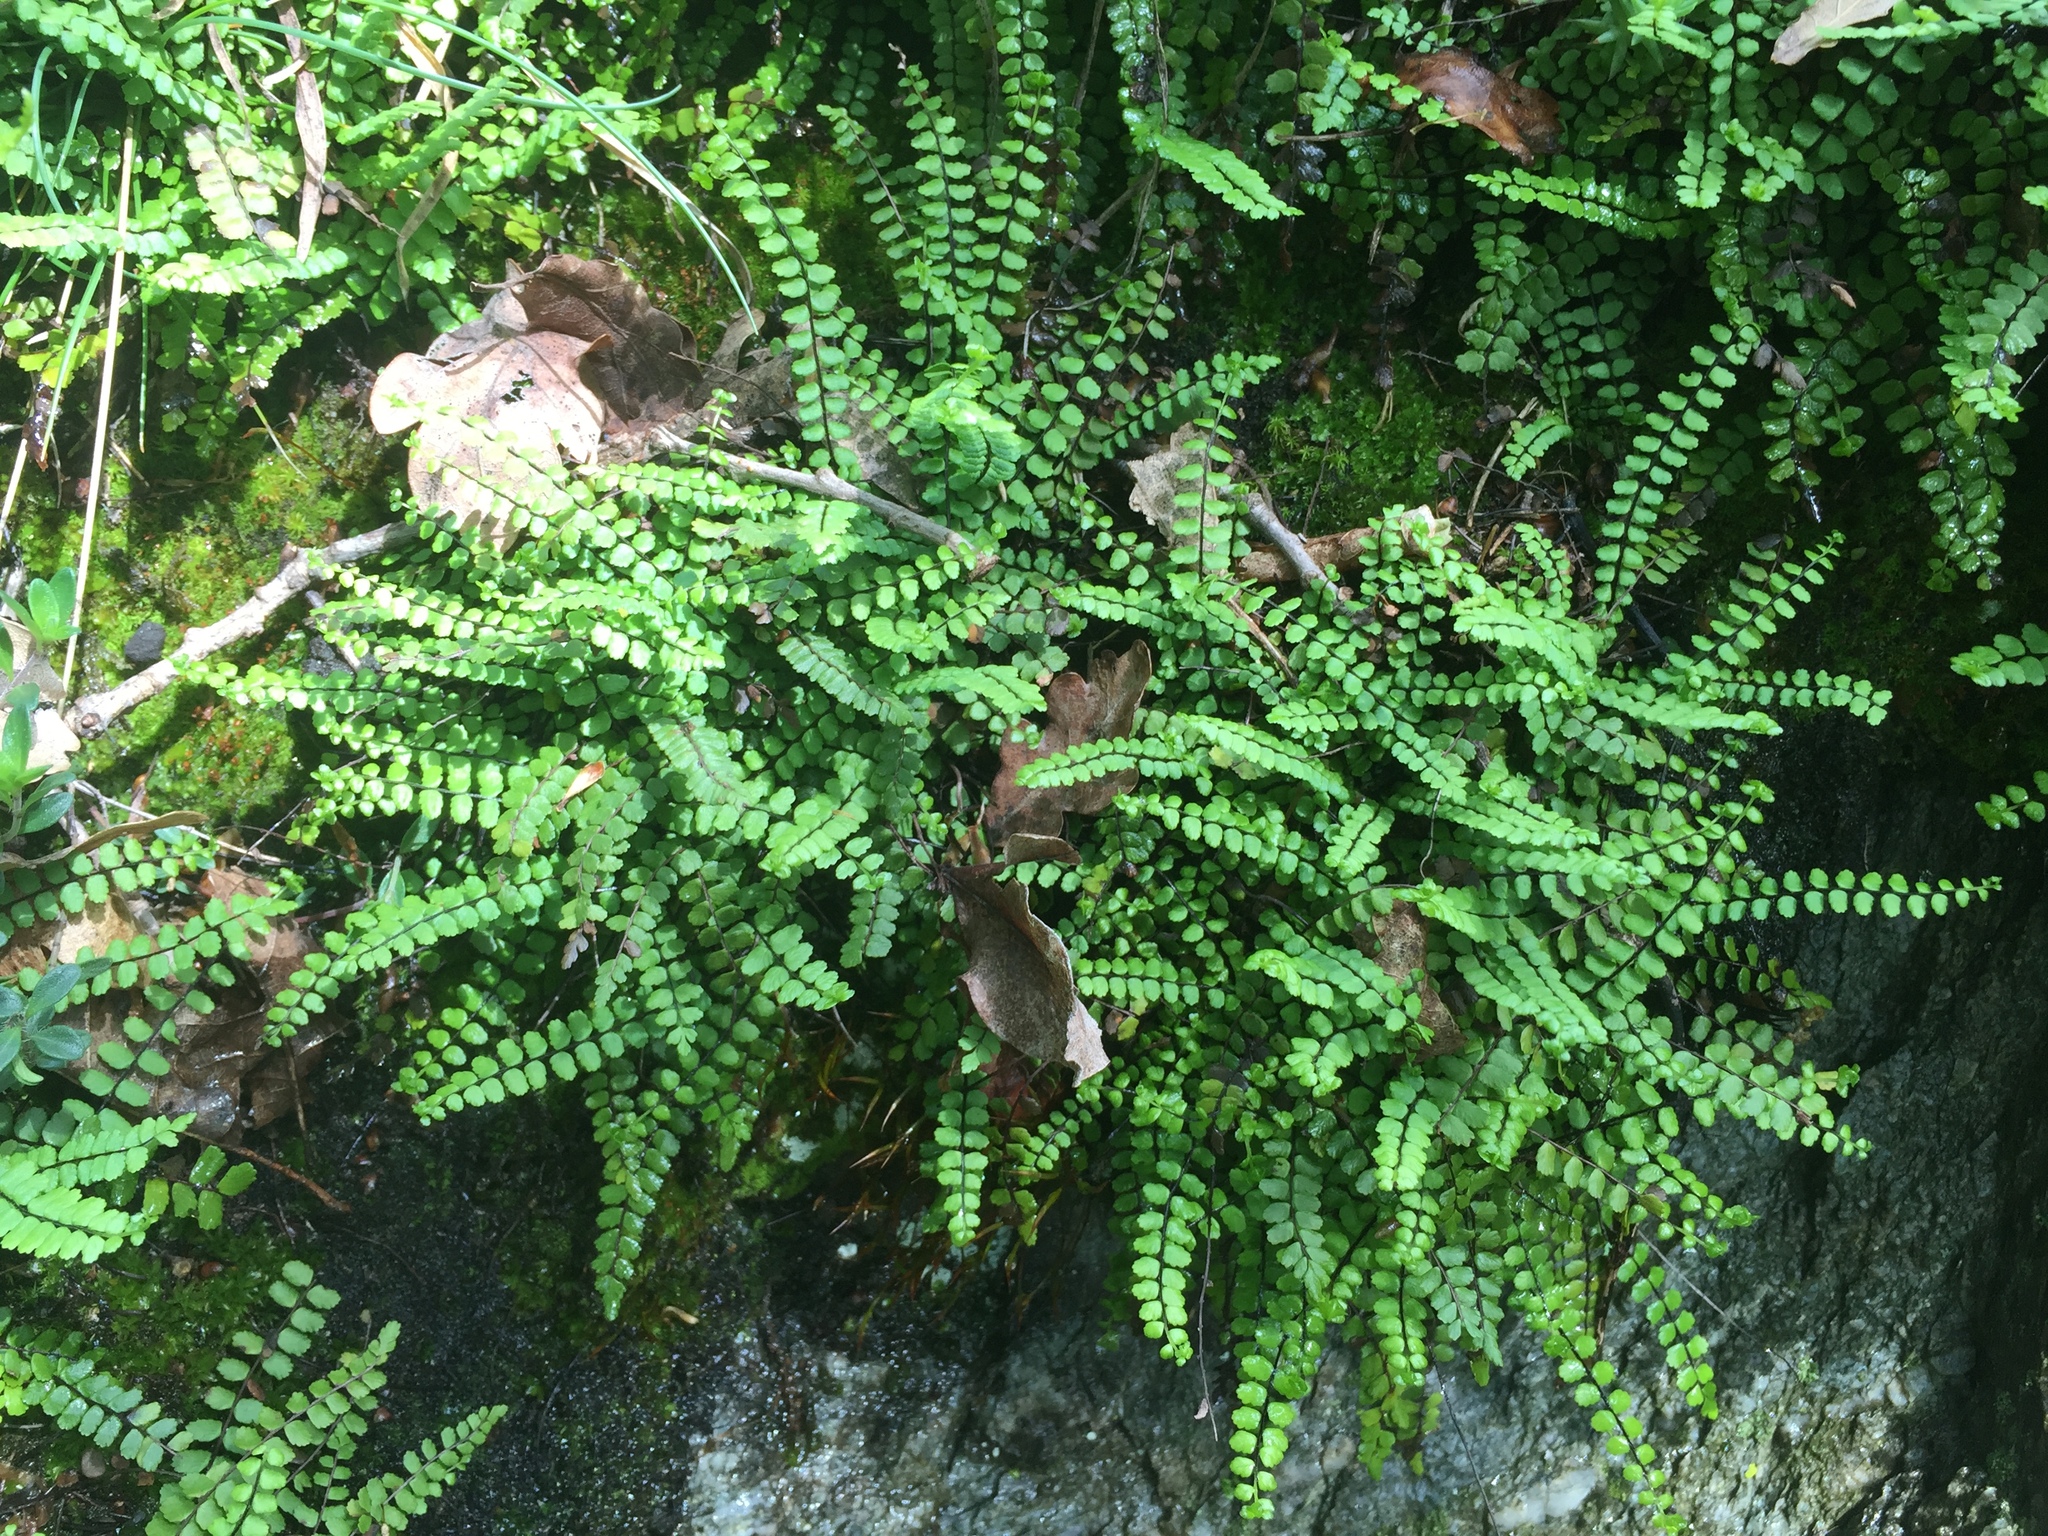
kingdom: Plantae
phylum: Tracheophyta
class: Polypodiopsida
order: Polypodiales
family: Aspleniaceae
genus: Asplenium
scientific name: Asplenium trichomanes
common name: Maidenhair spleenwort
